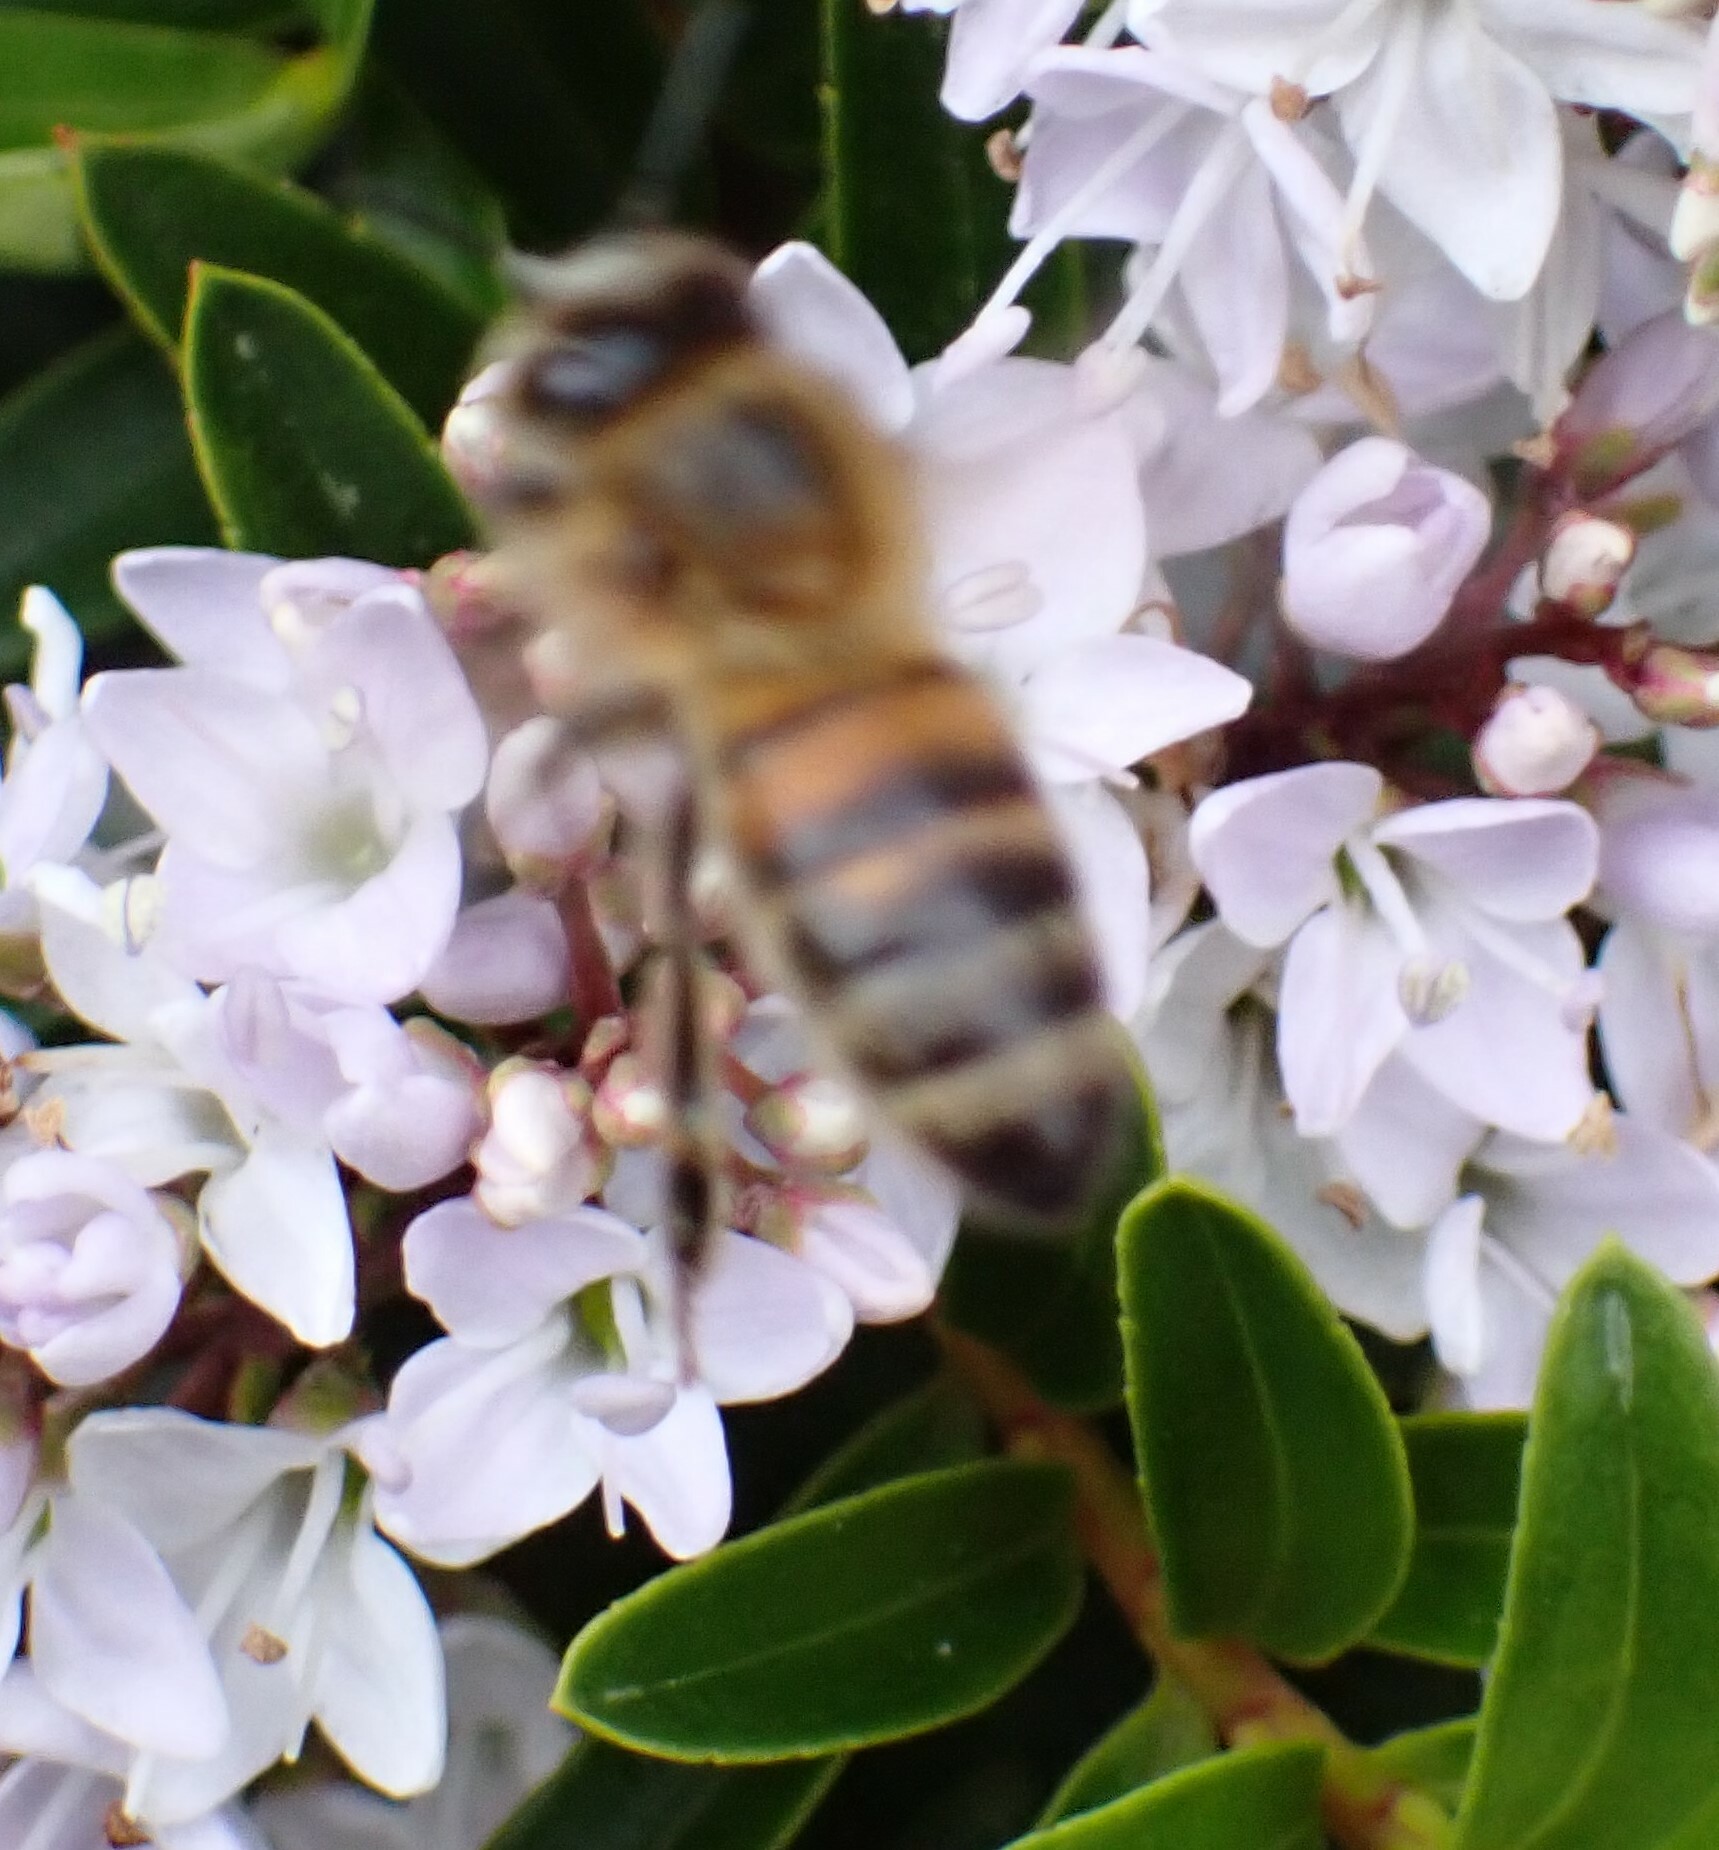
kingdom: Animalia
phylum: Arthropoda
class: Insecta
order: Hymenoptera
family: Apidae
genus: Apis
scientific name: Apis mellifera
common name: Honey bee
